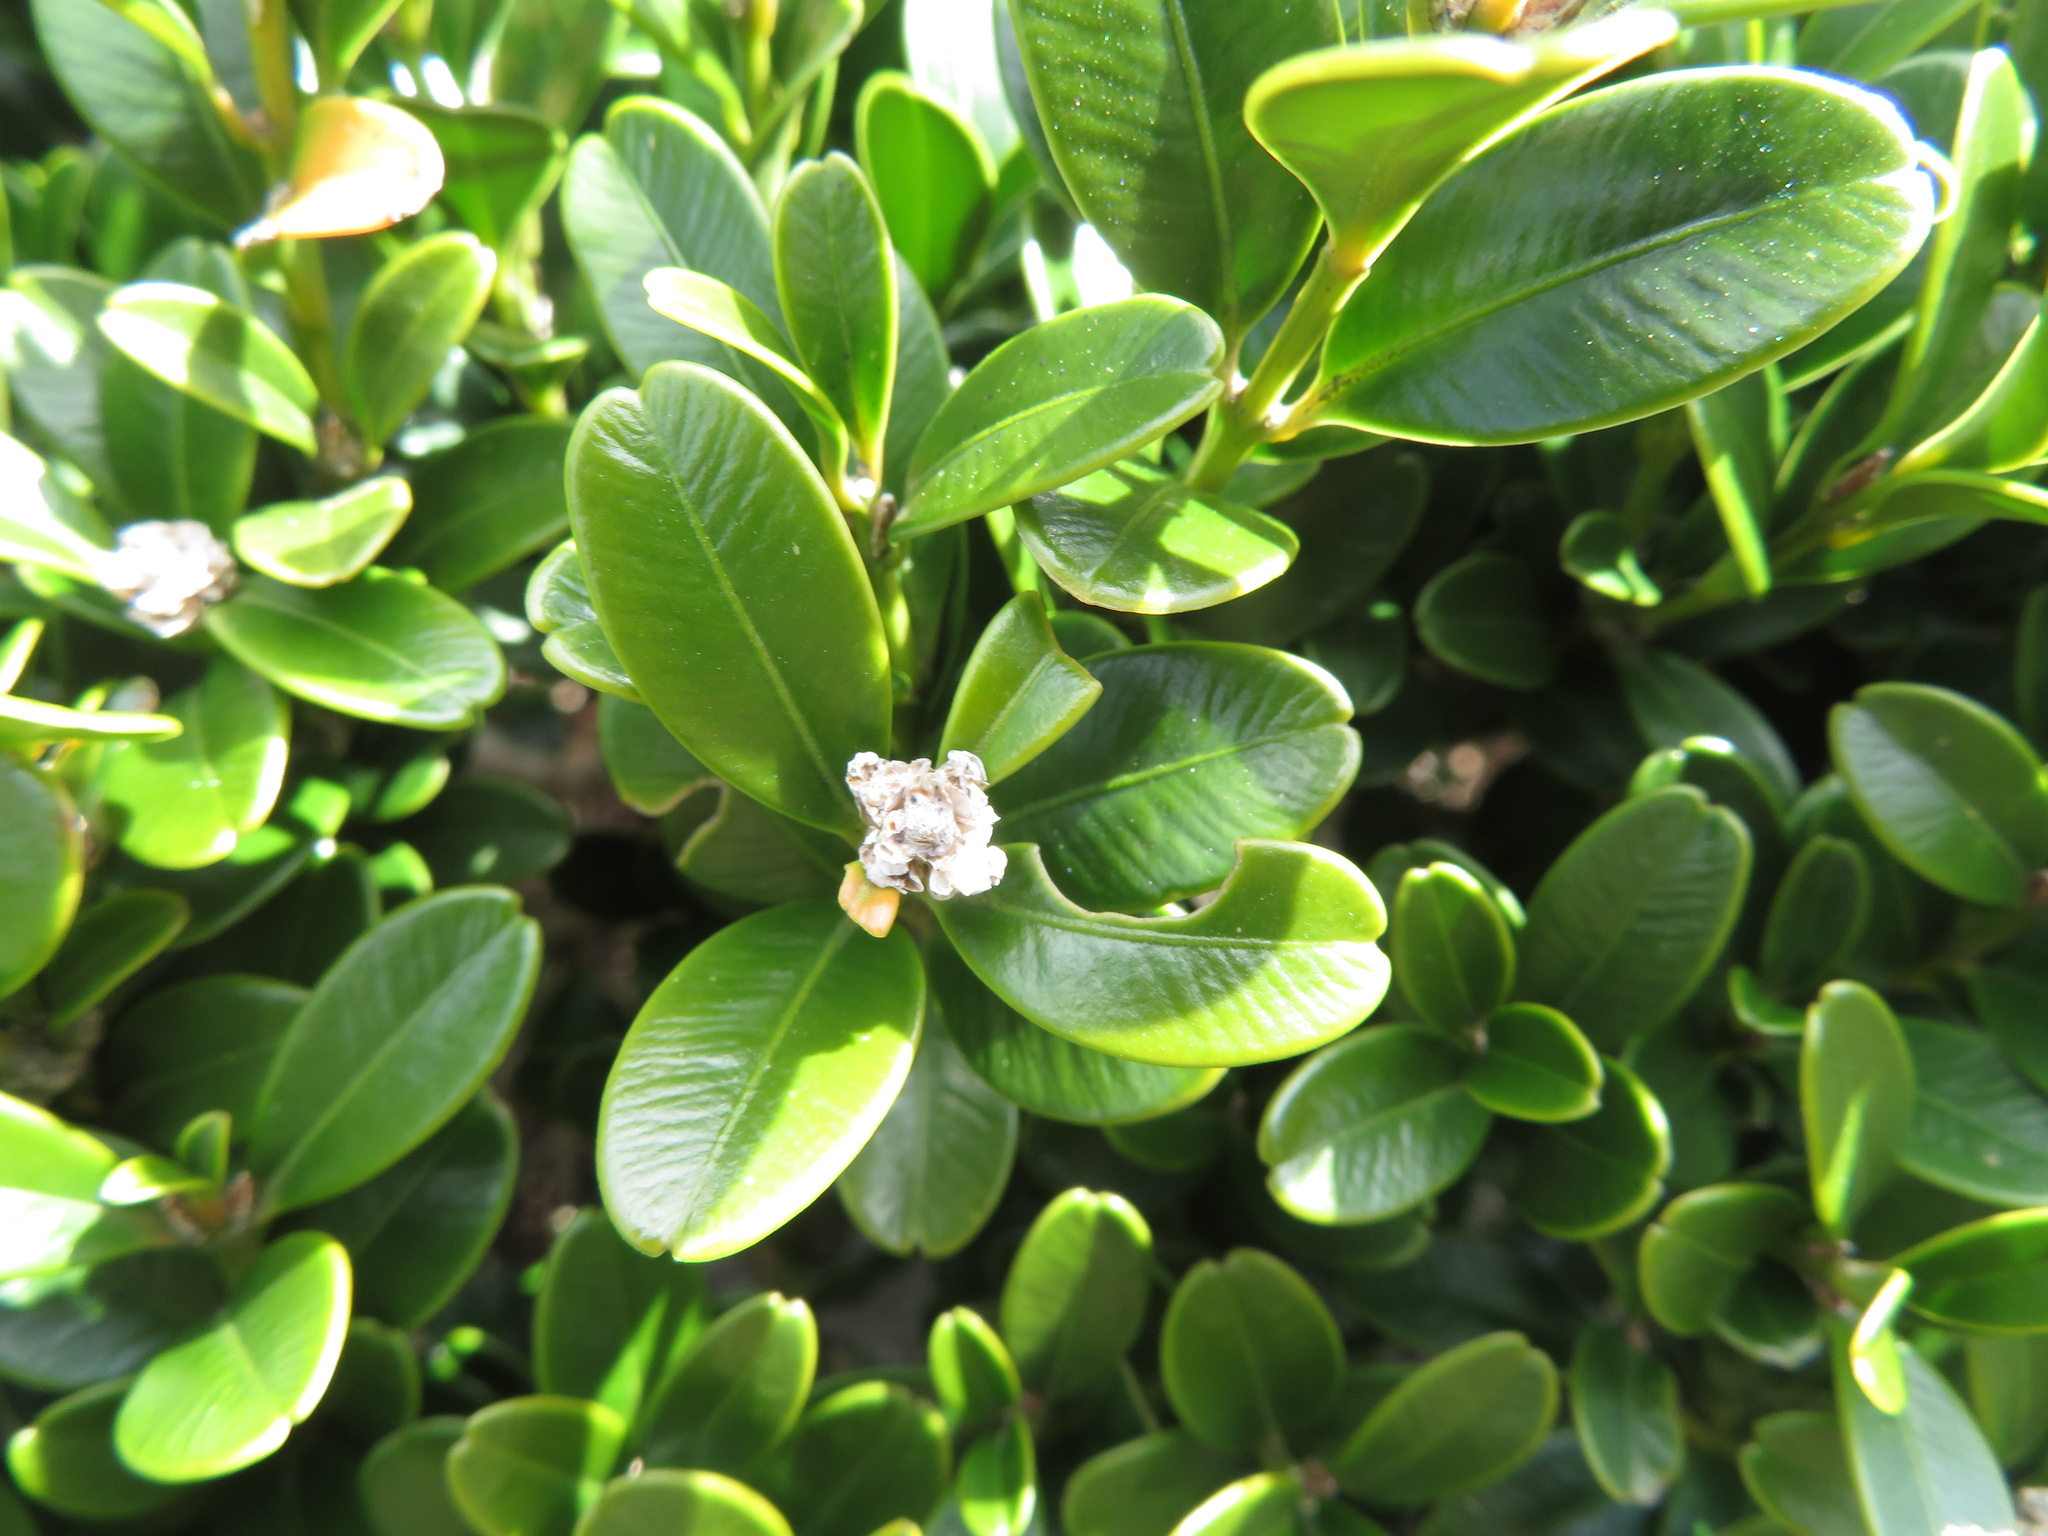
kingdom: Plantae
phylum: Tracheophyta
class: Magnoliopsida
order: Buxales
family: Buxaceae
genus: Buxus
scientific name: Buxus microphylla
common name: Littleleaf boxwood
